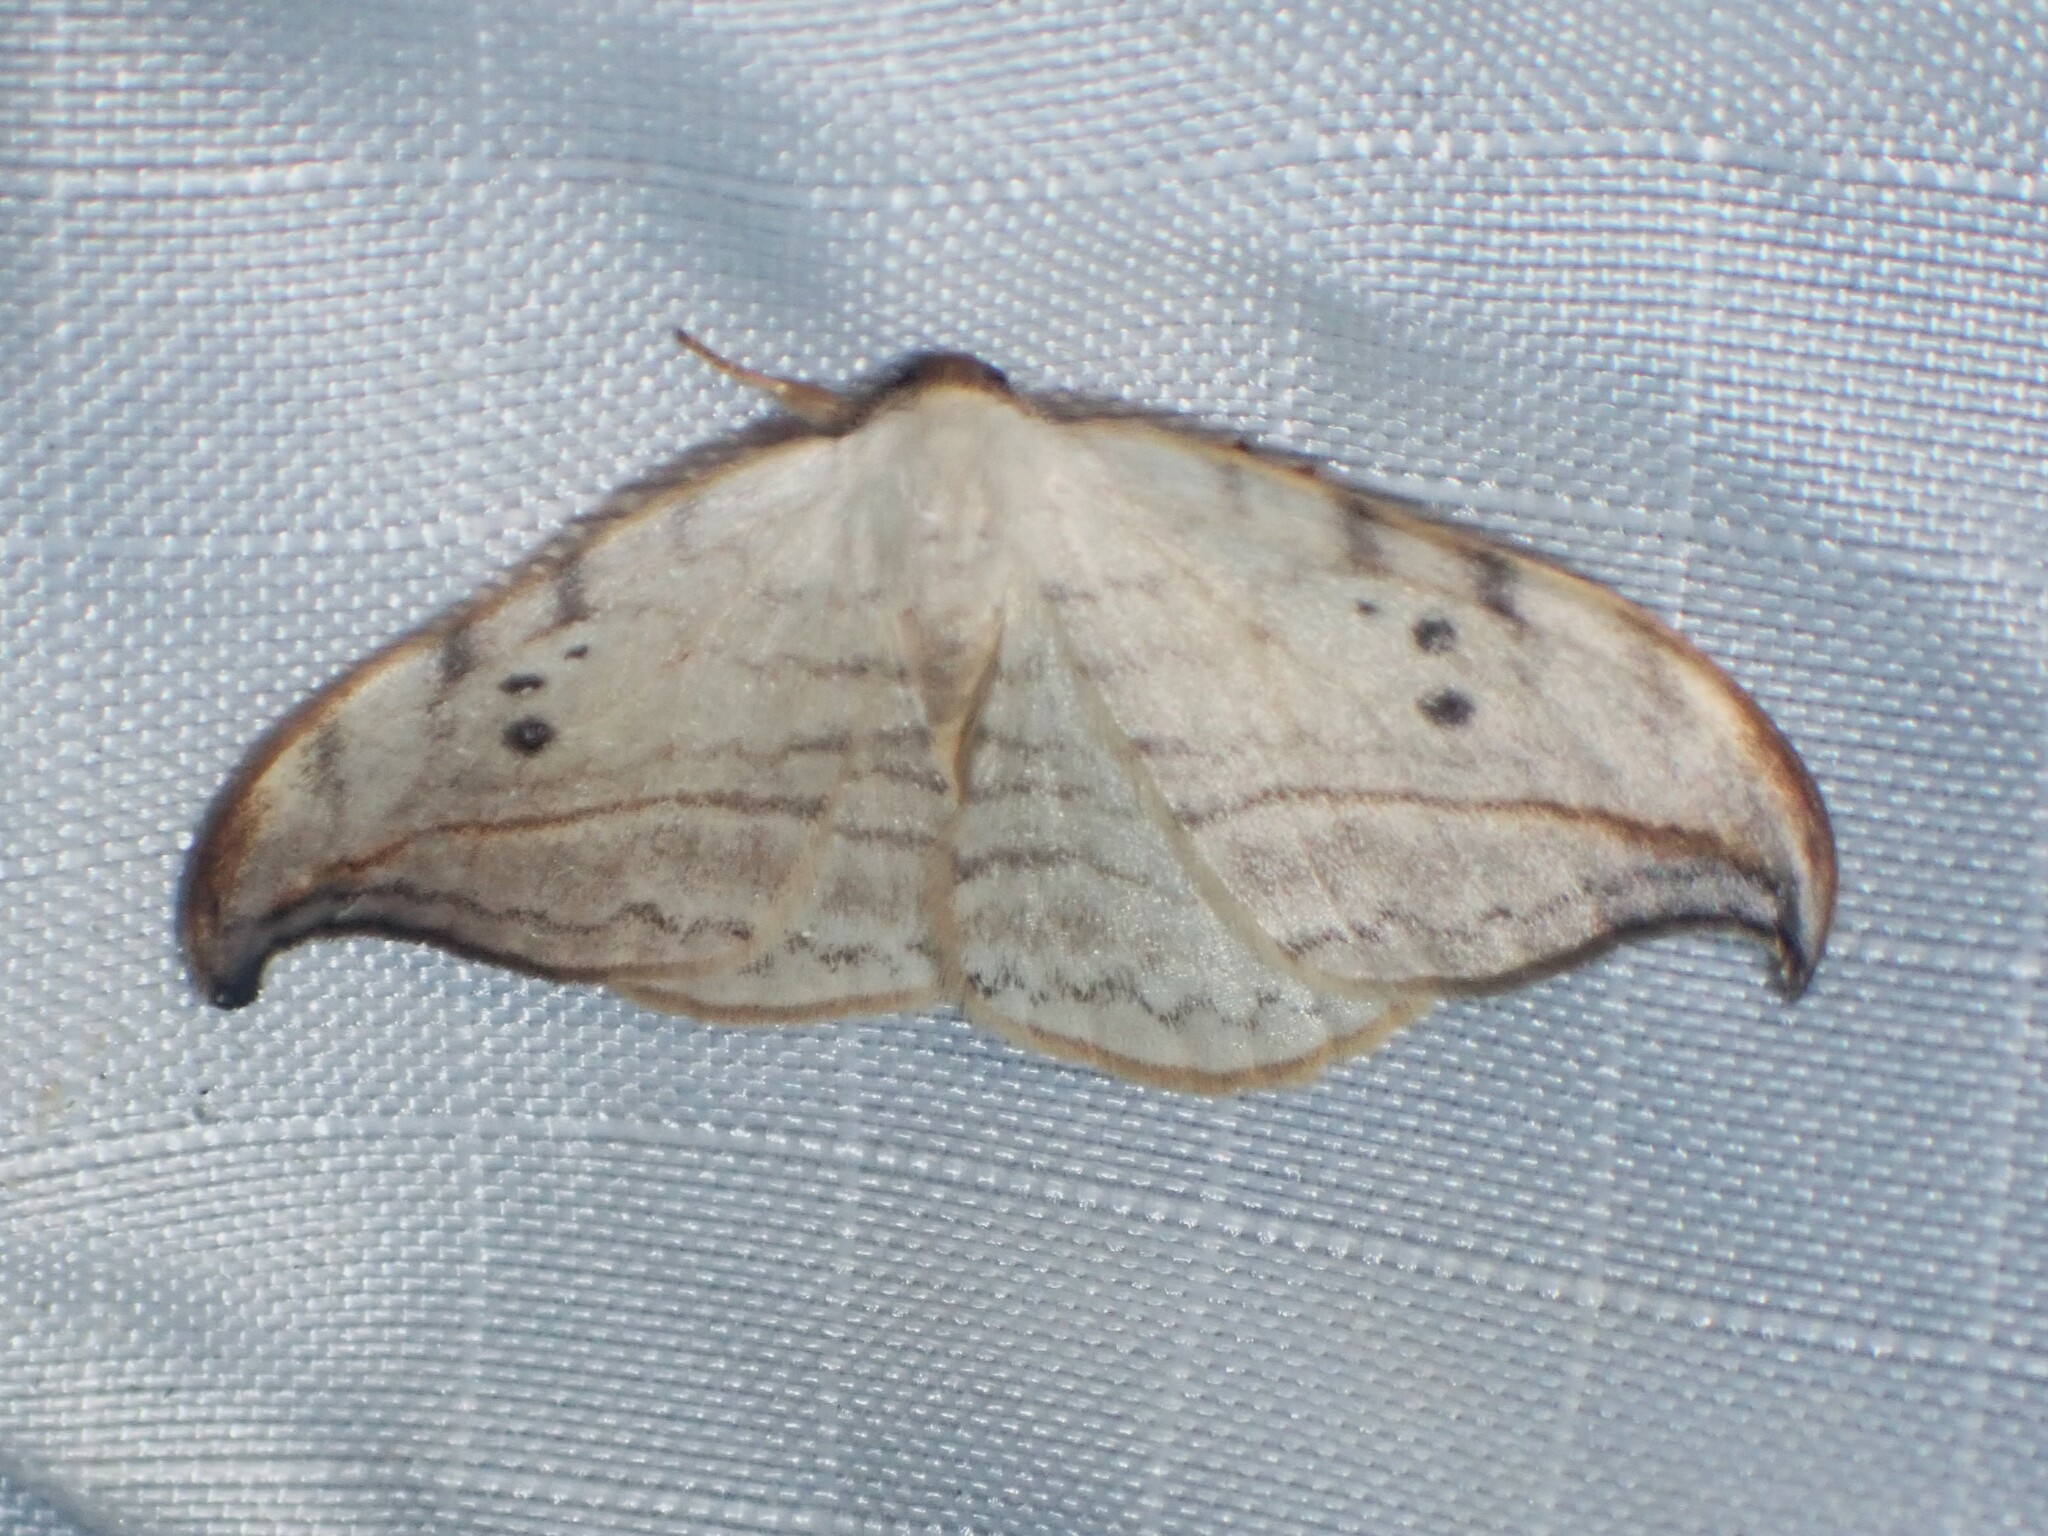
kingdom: Animalia
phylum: Arthropoda
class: Insecta
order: Lepidoptera
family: Drepanidae
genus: Drepana
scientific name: Drepana arcuata
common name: Arched hooktip moth
